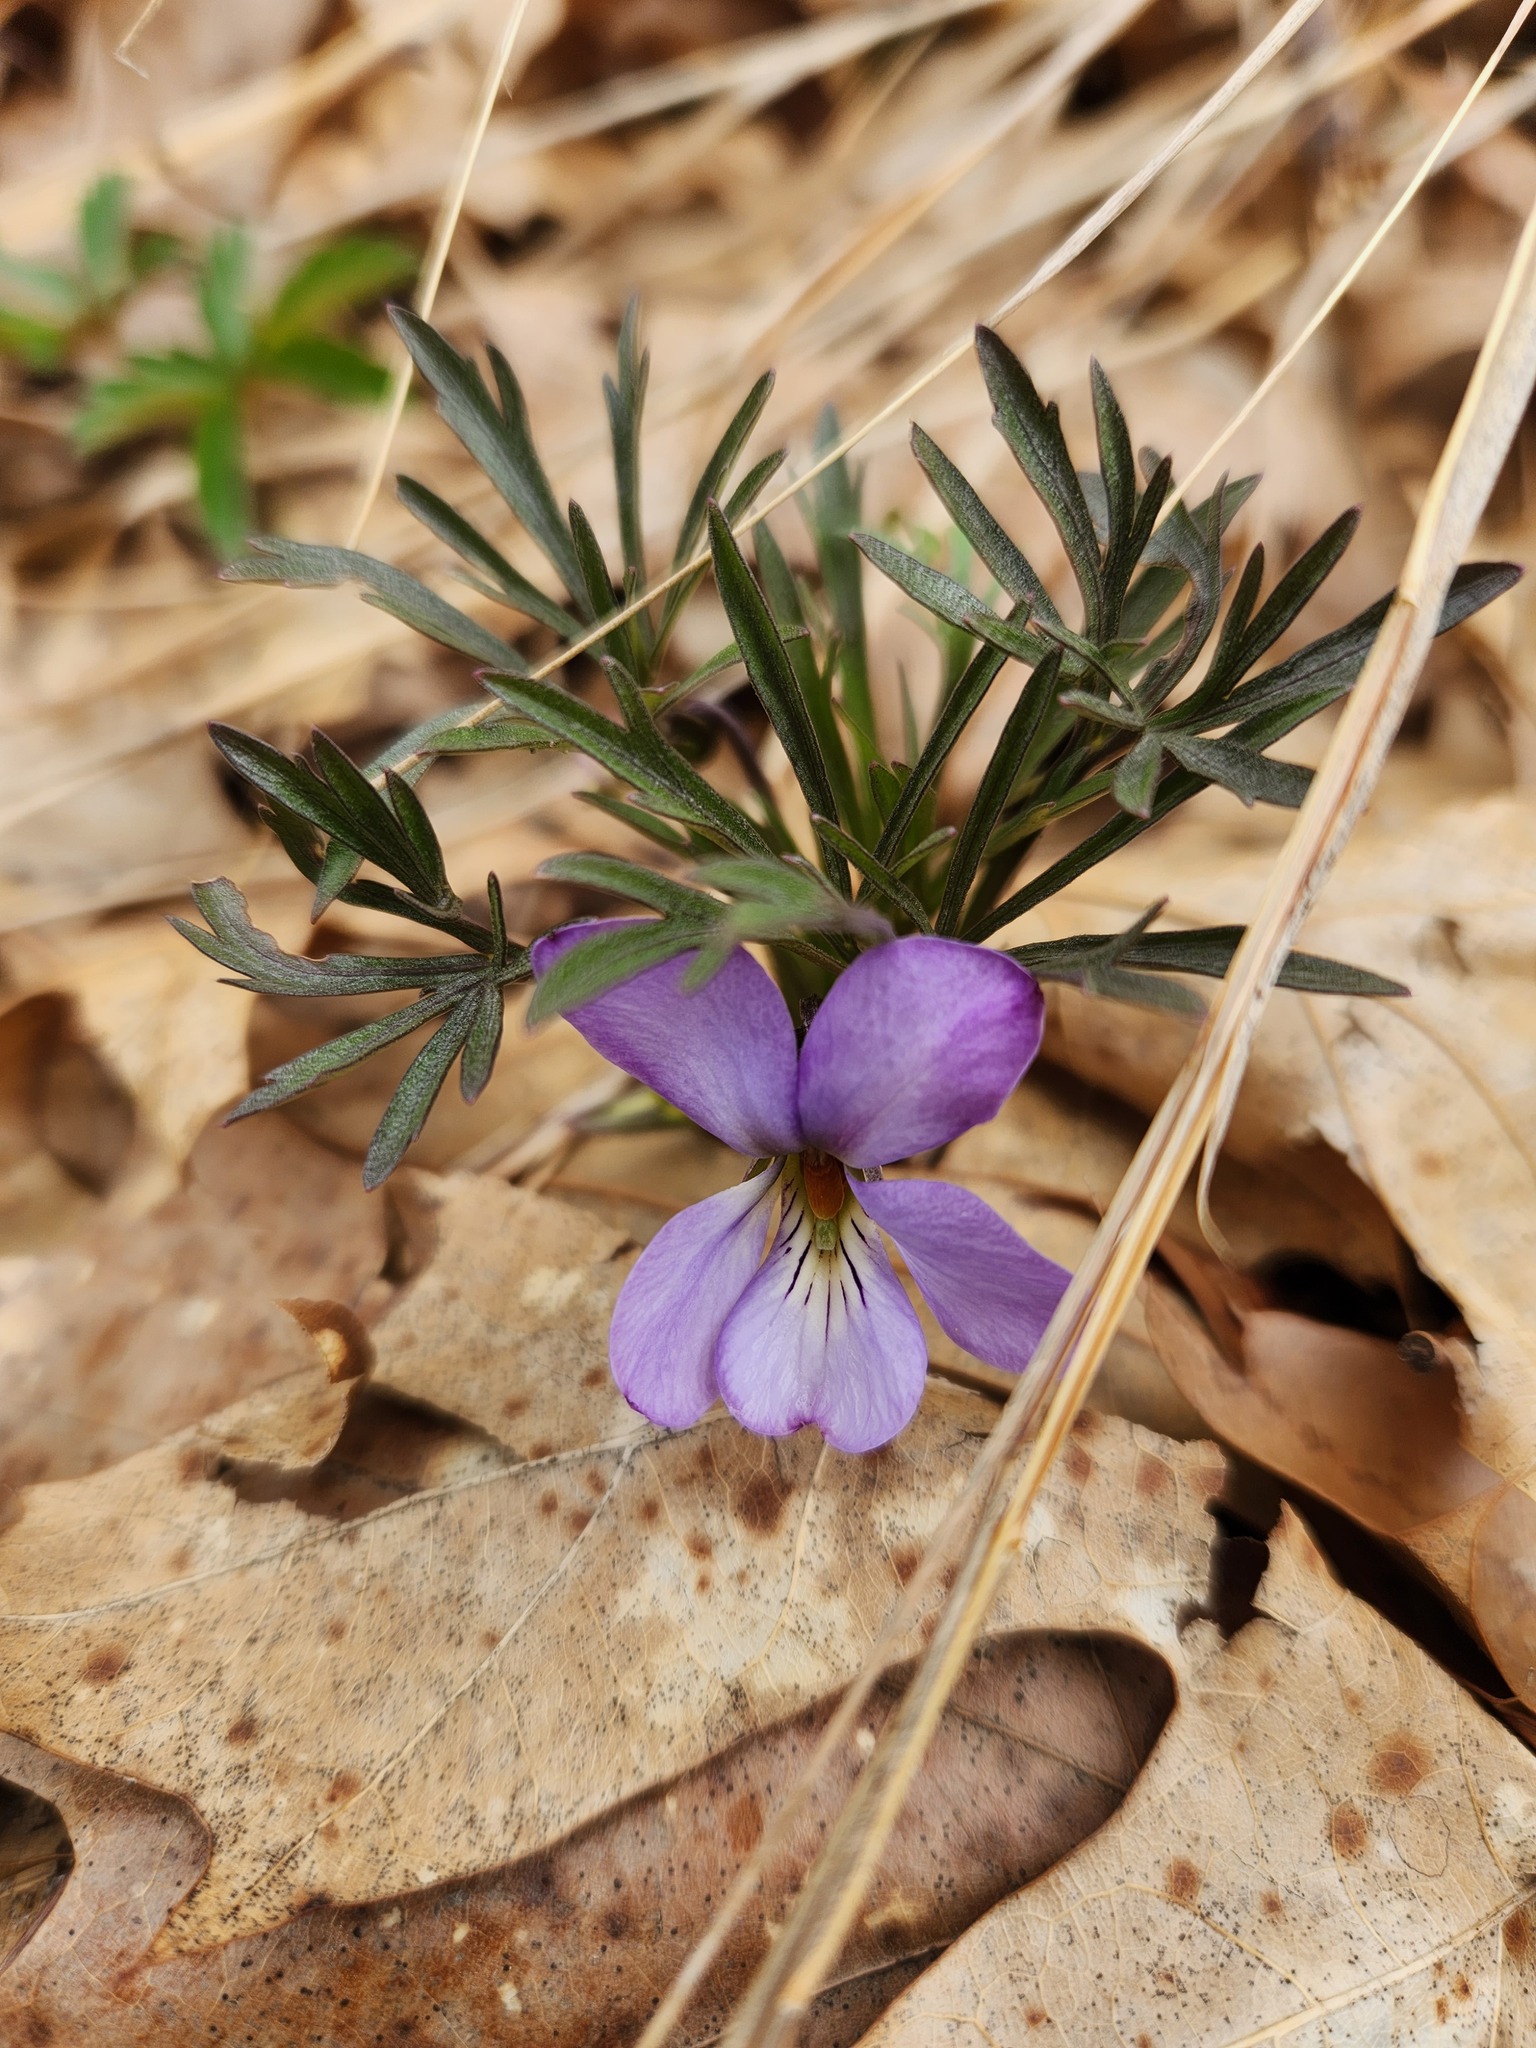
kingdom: Plantae
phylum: Tracheophyta
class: Magnoliopsida
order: Malpighiales
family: Violaceae
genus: Viola
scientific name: Viola pedata
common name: Pansy violet
